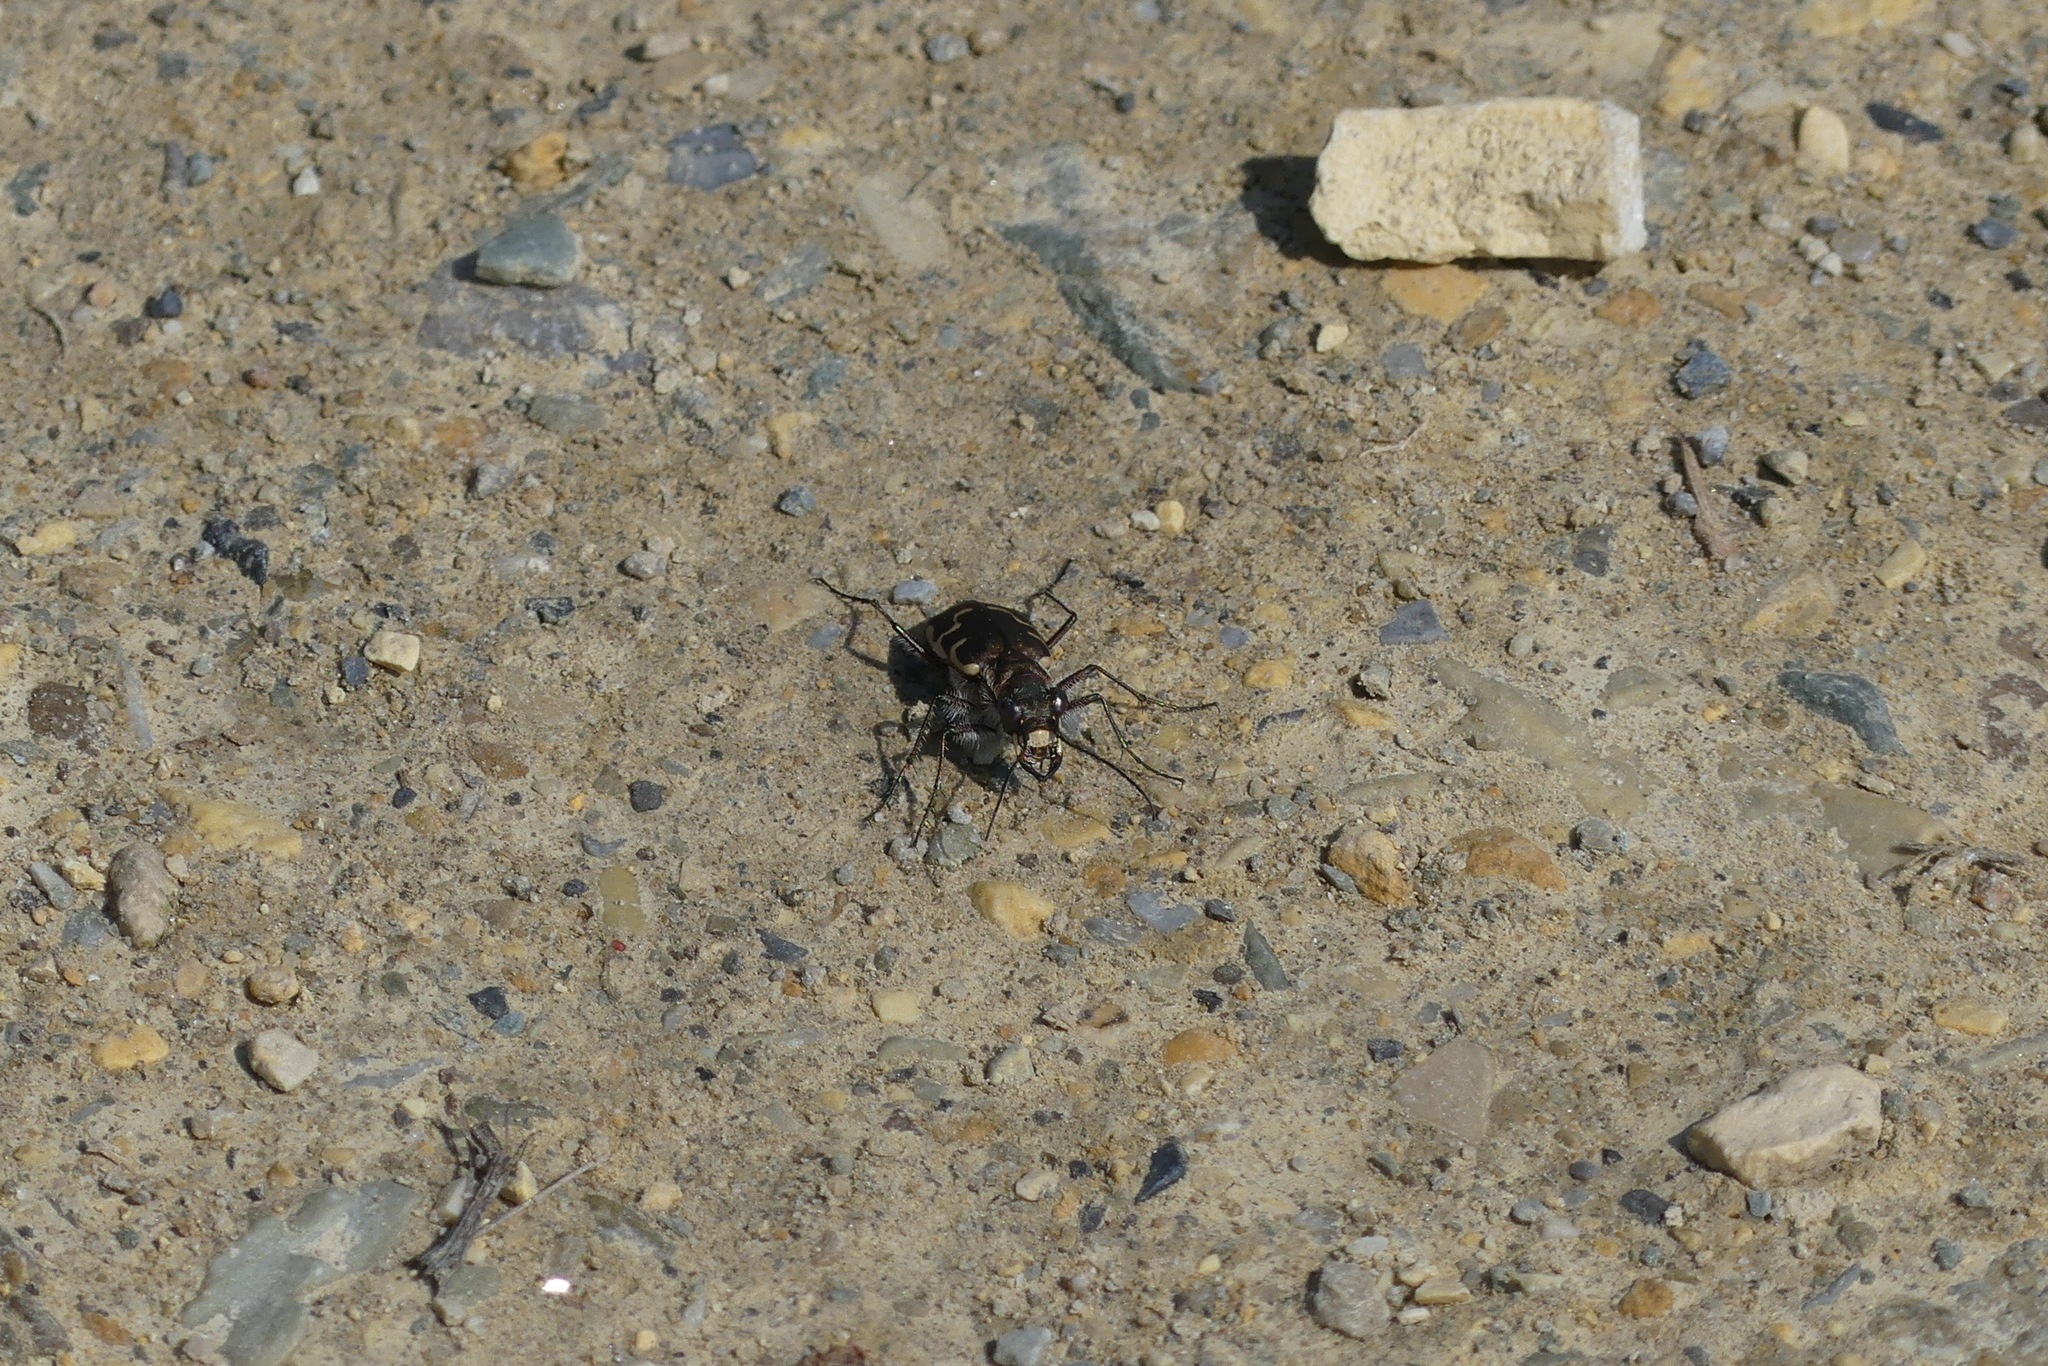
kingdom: Animalia
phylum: Arthropoda
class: Insecta
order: Coleoptera
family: Carabidae
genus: Cicindela
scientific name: Cicindela repanda
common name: Bronzed tiger beetle
